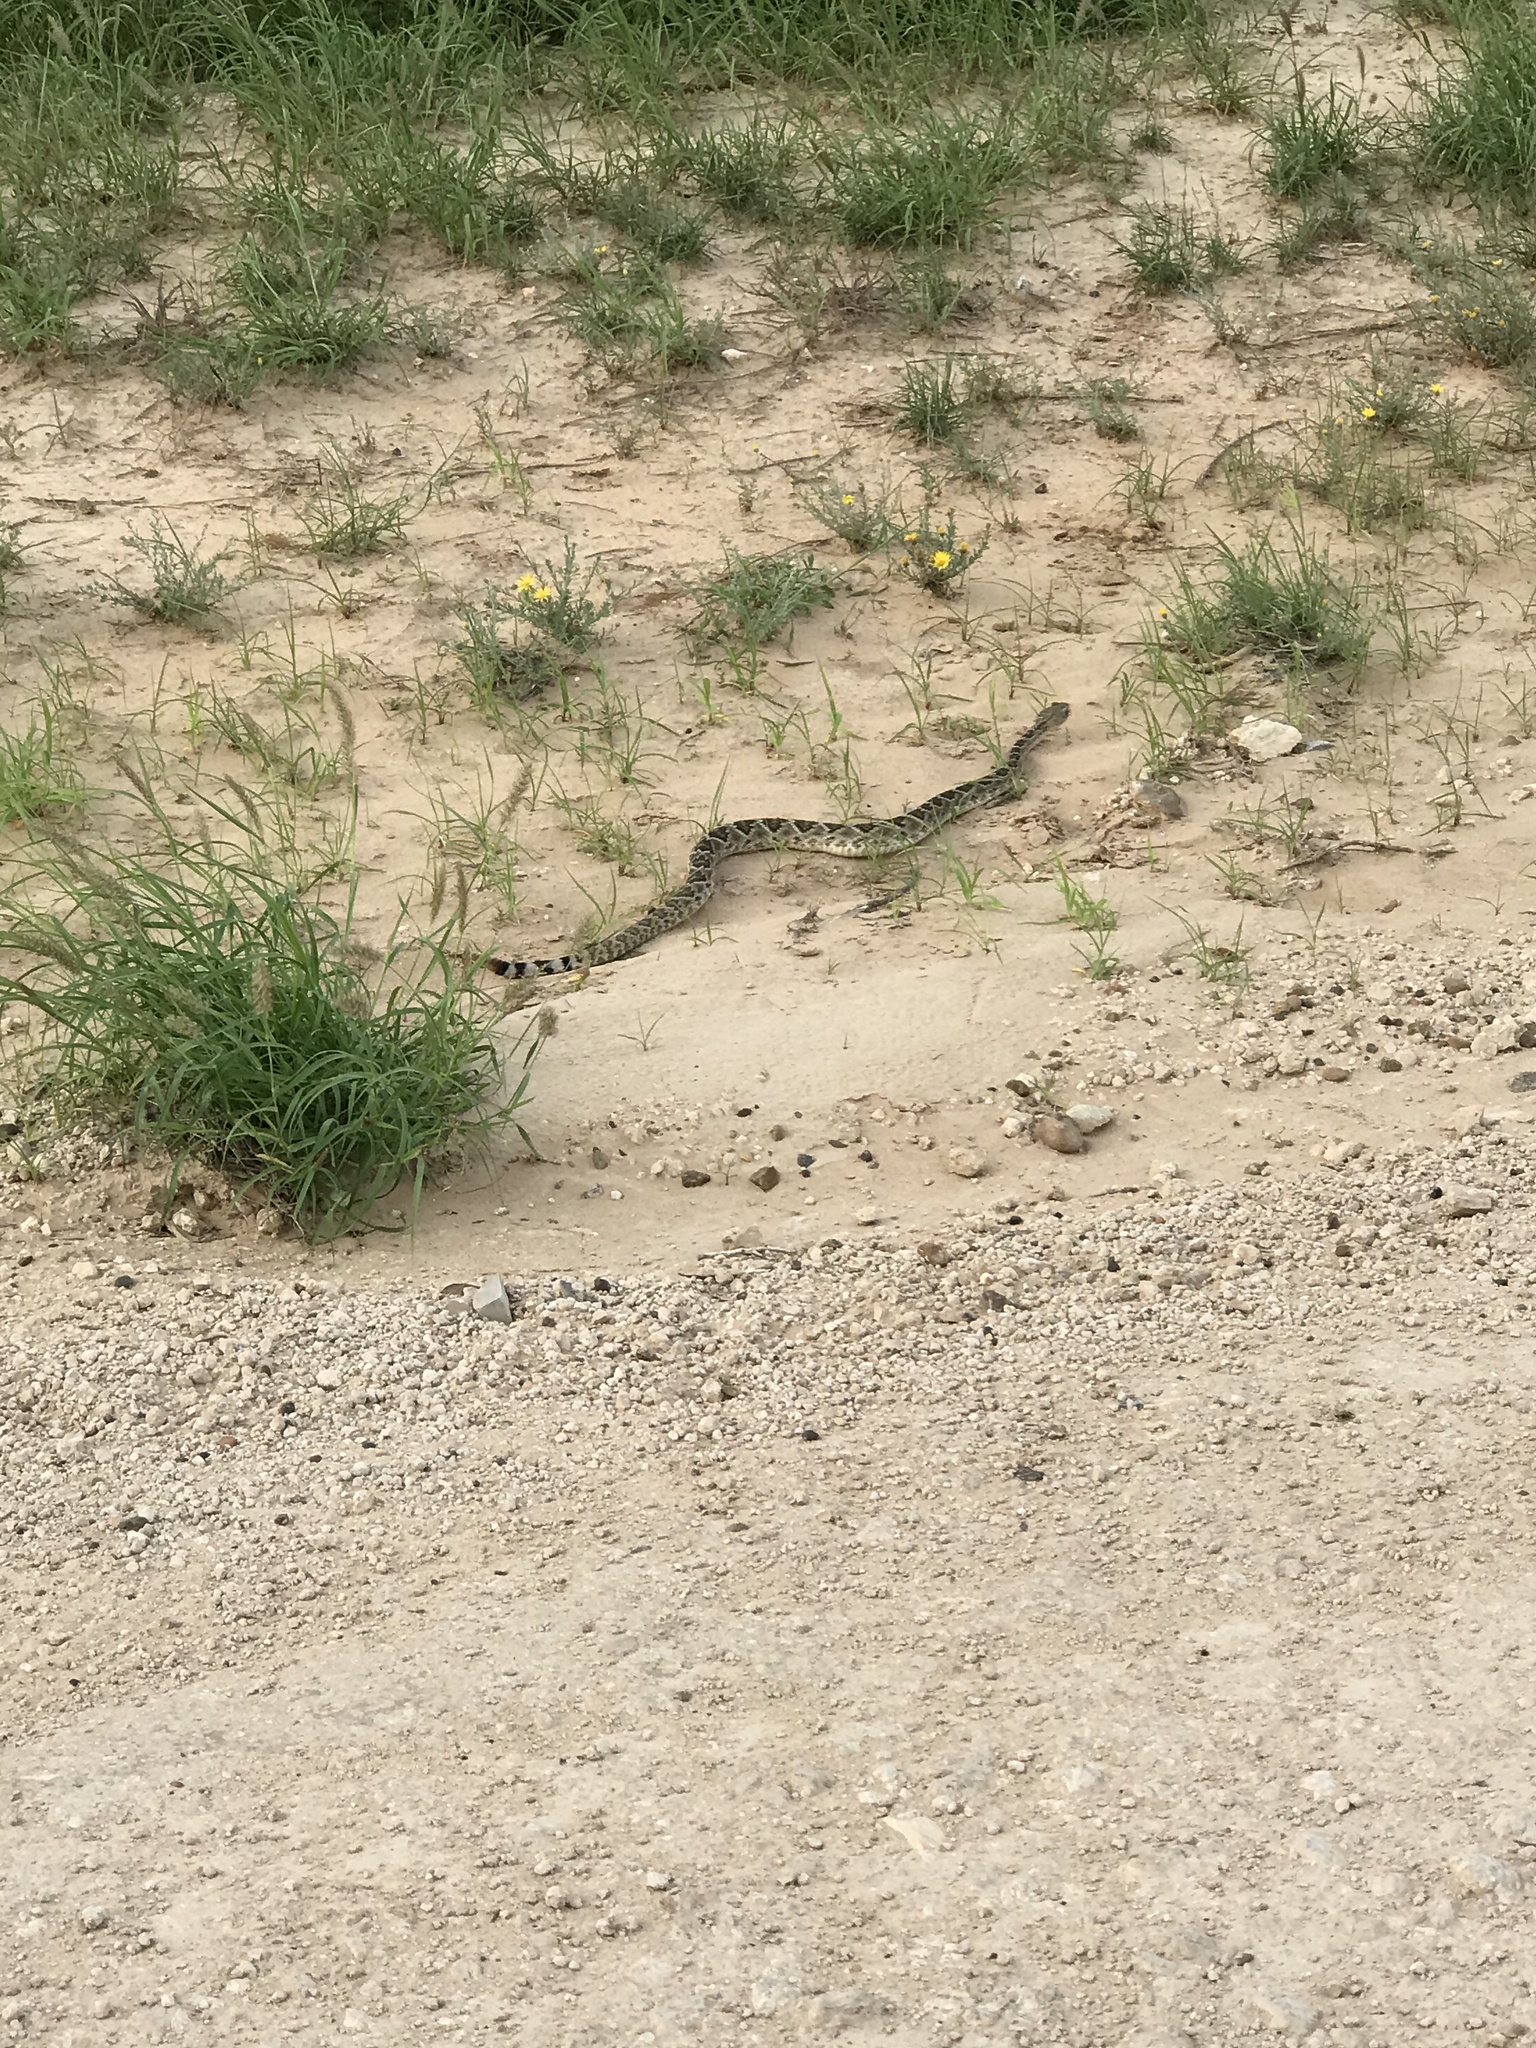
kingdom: Animalia
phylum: Chordata
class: Squamata
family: Viperidae
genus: Crotalus
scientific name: Crotalus atrox
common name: Western diamond-backed rattlesnake
